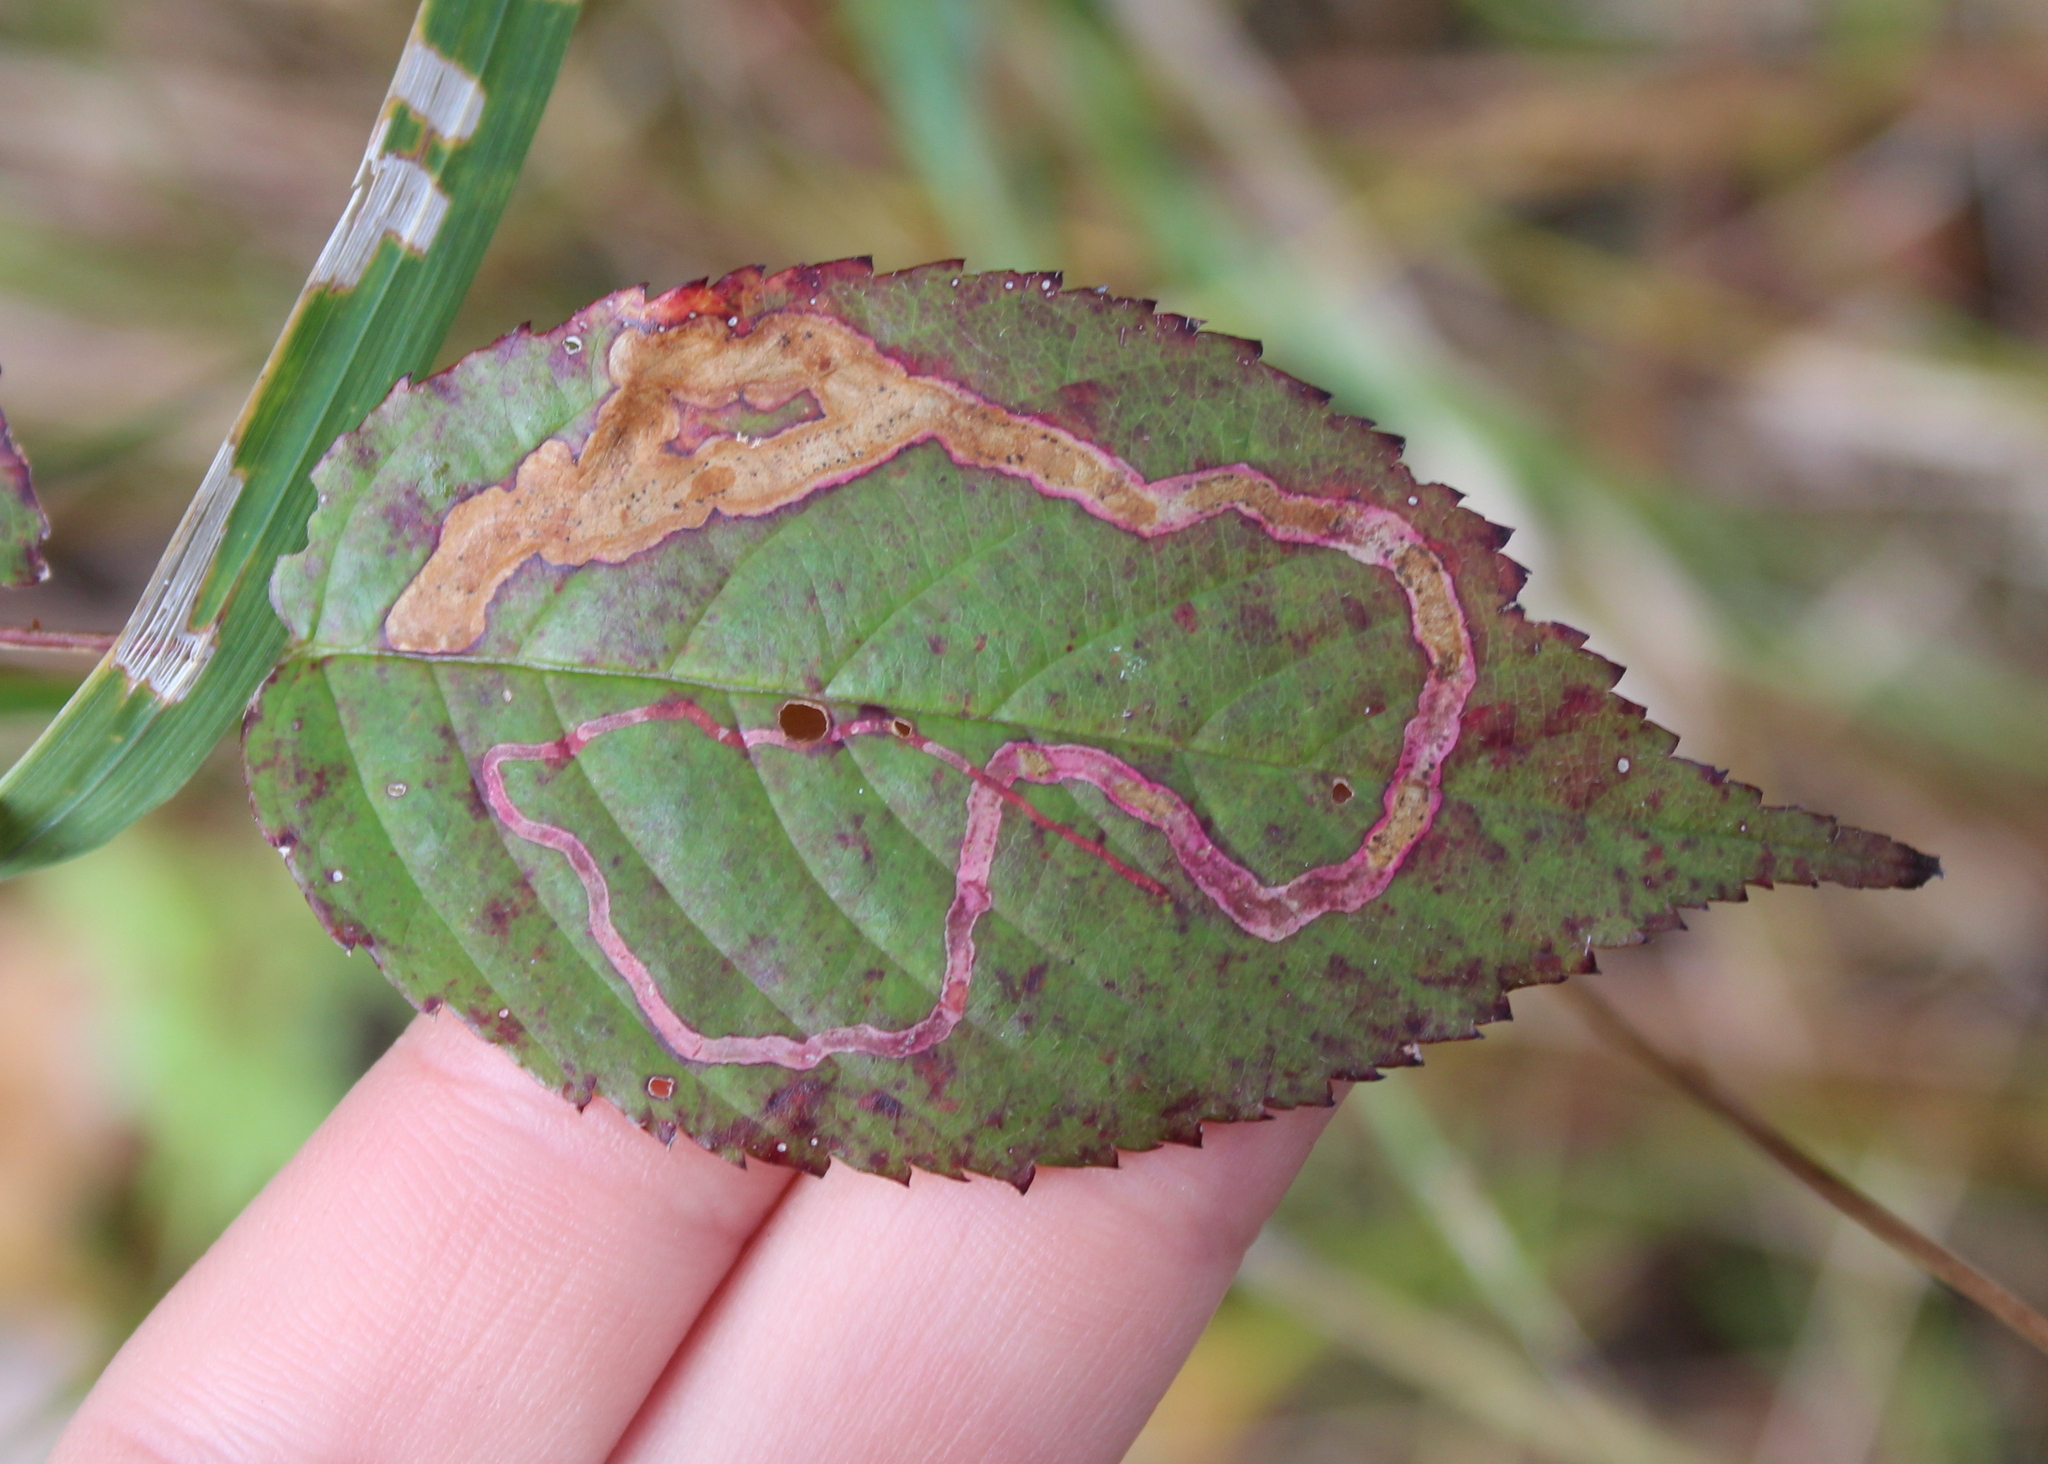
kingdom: Animalia
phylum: Arthropoda
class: Insecta
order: Diptera
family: Agromyzidae
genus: Agromyza
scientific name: Agromyza vockerothi
